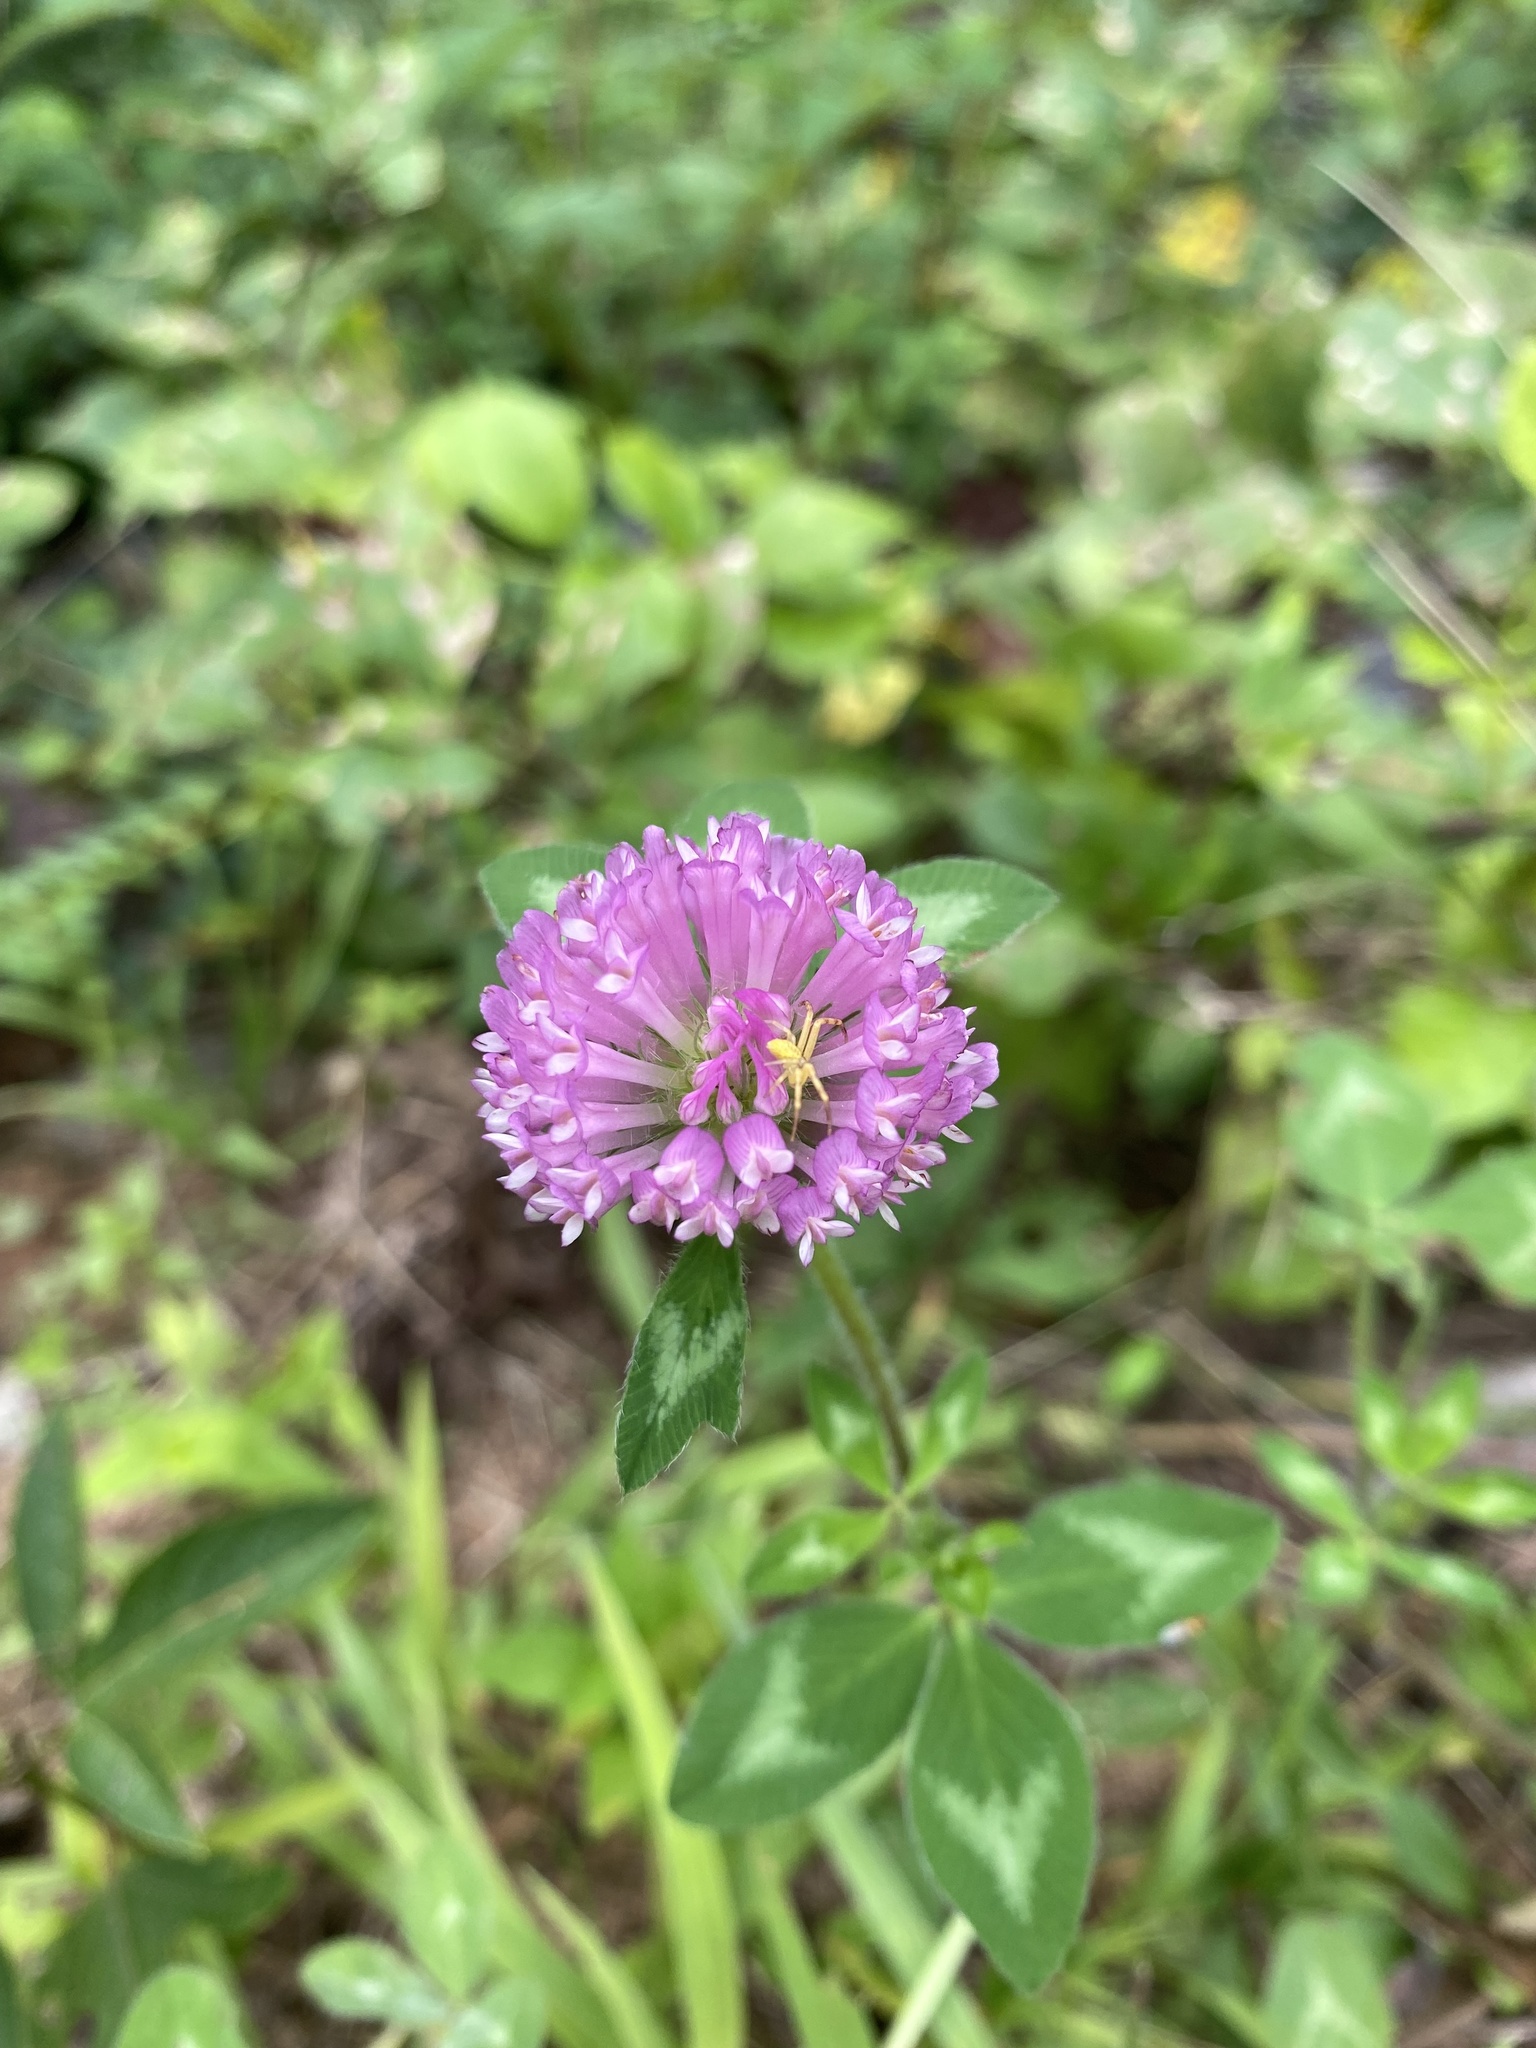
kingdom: Plantae
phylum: Tracheophyta
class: Magnoliopsida
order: Fabales
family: Fabaceae
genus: Trifolium
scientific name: Trifolium pratense
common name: Red clover
